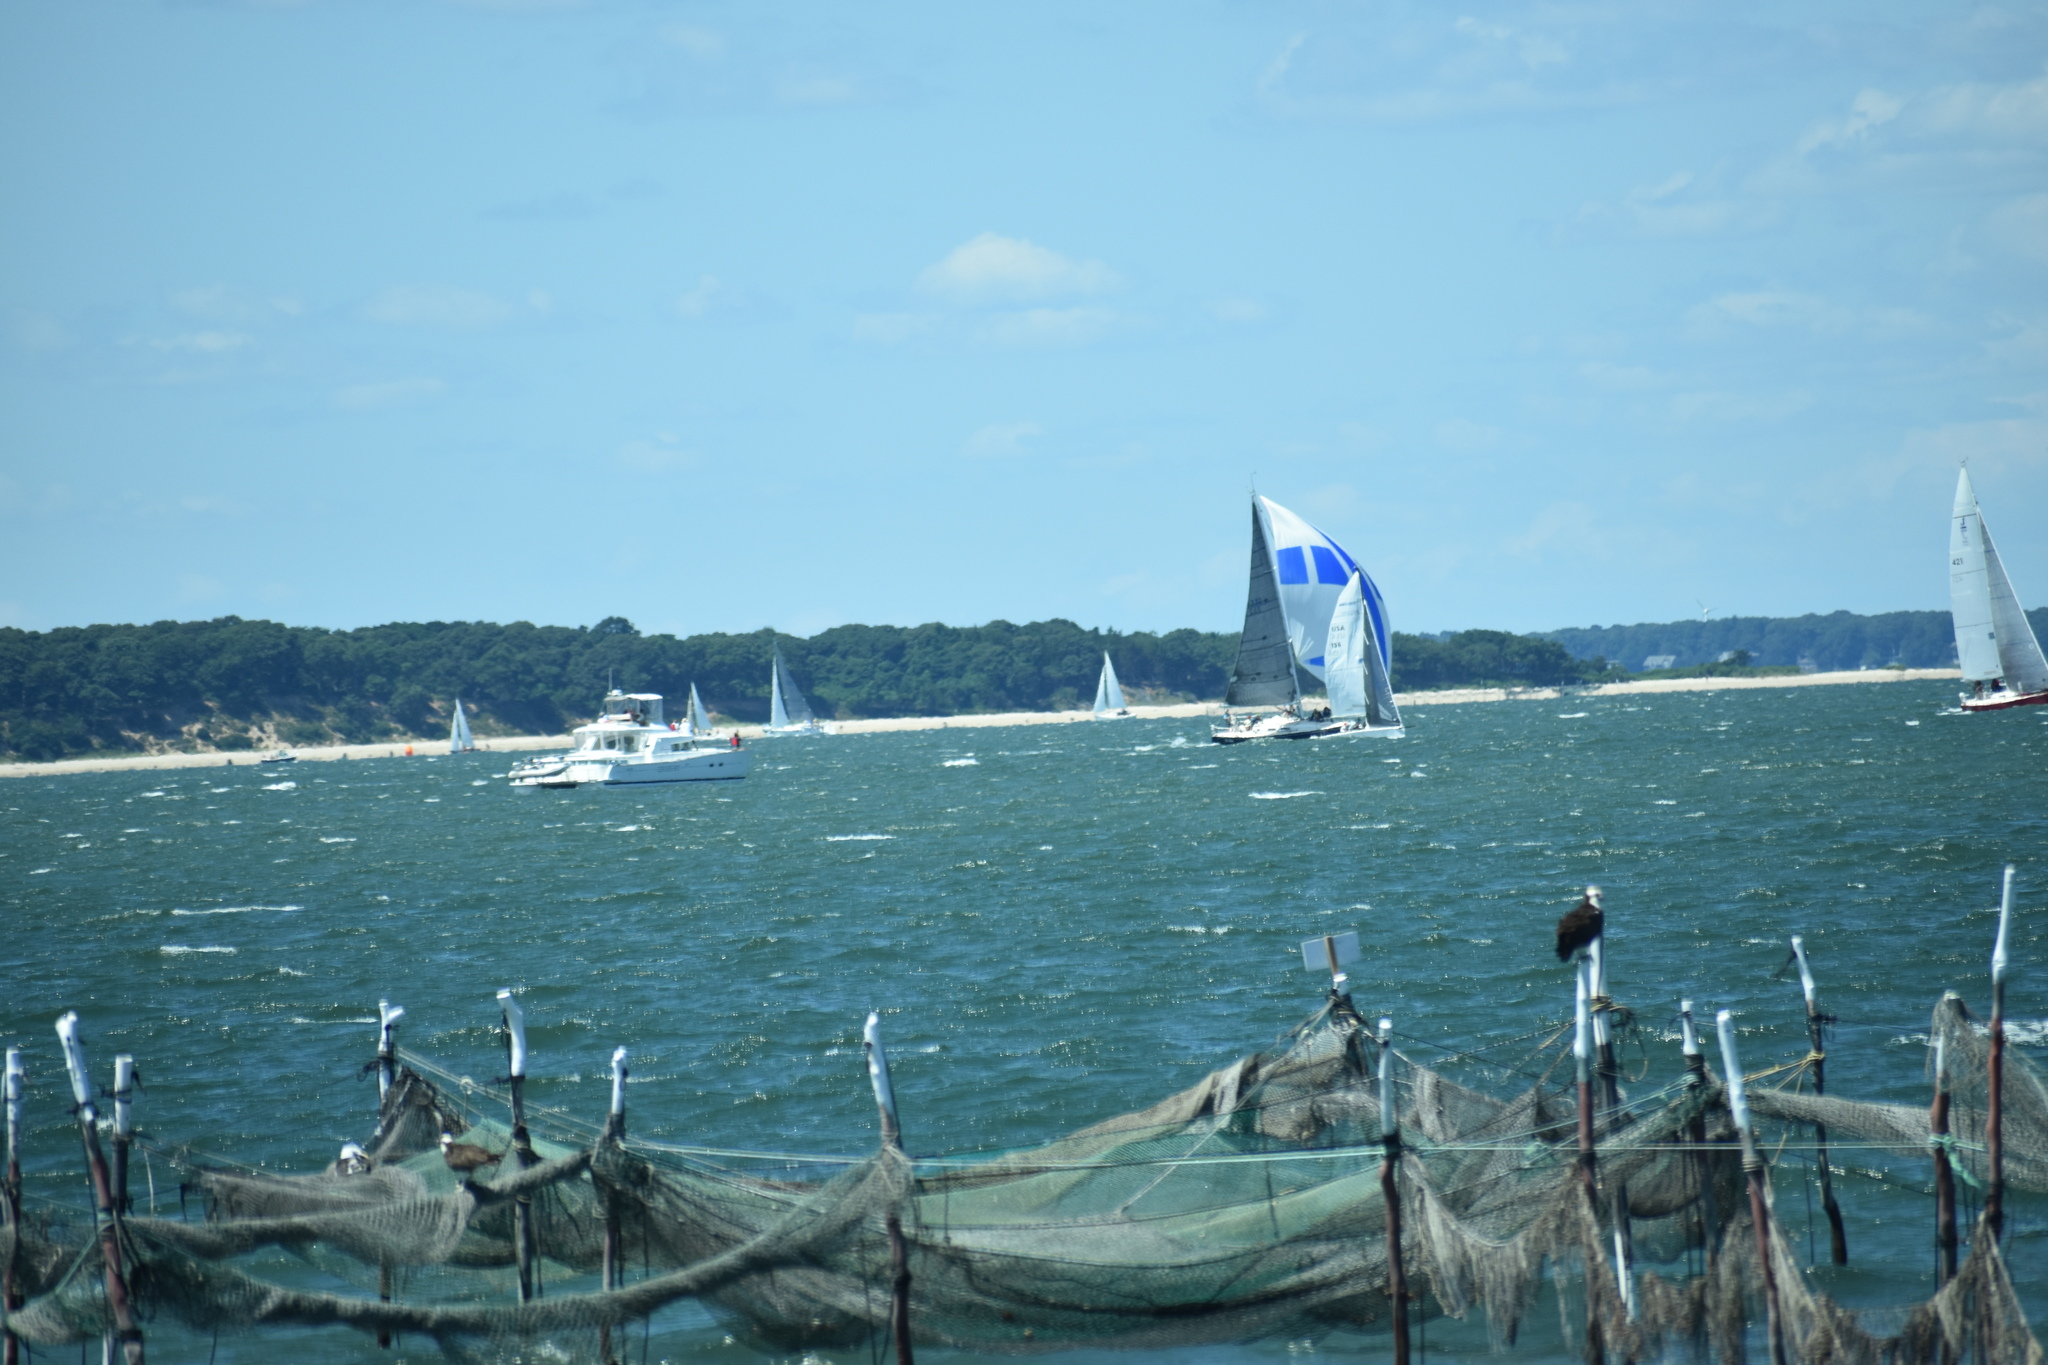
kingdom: Animalia
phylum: Chordata
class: Aves
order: Accipitriformes
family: Pandionidae
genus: Pandion
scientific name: Pandion haliaetus
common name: Osprey
